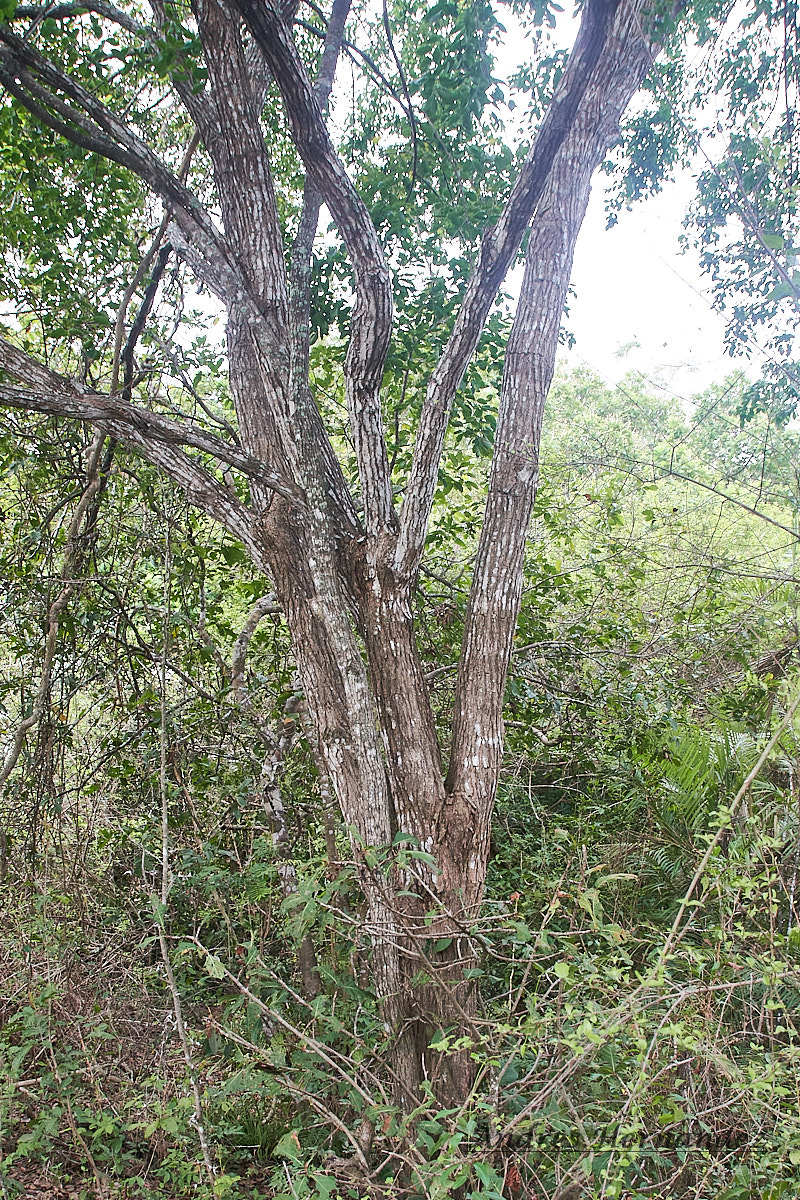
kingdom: Plantae
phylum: Tracheophyta
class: Magnoliopsida
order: Fabales
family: Fabaceae
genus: Platymiscium
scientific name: Platymiscium pinnatum
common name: Panama redwood
